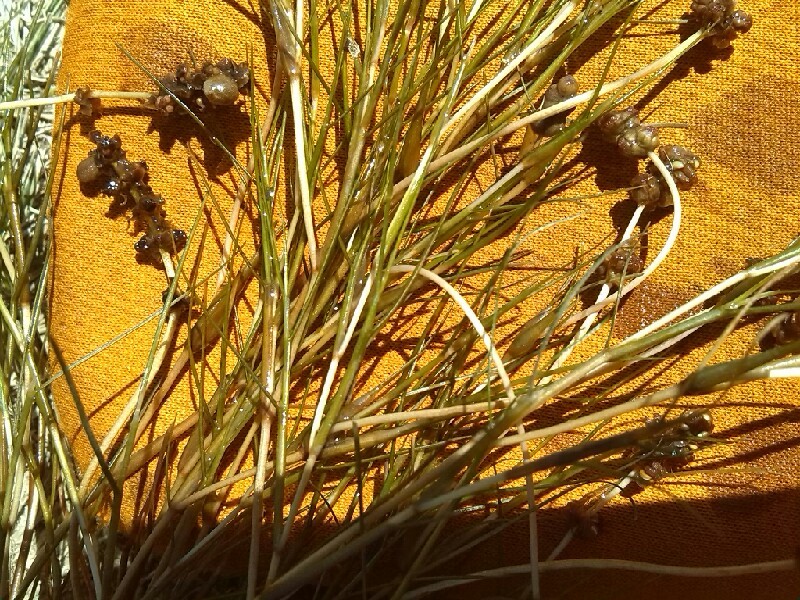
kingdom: Plantae
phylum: Tracheophyta
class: Liliopsida
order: Alismatales
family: Potamogetonaceae
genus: Stuckenia
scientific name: Stuckenia pectinata
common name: Sago pondweed
